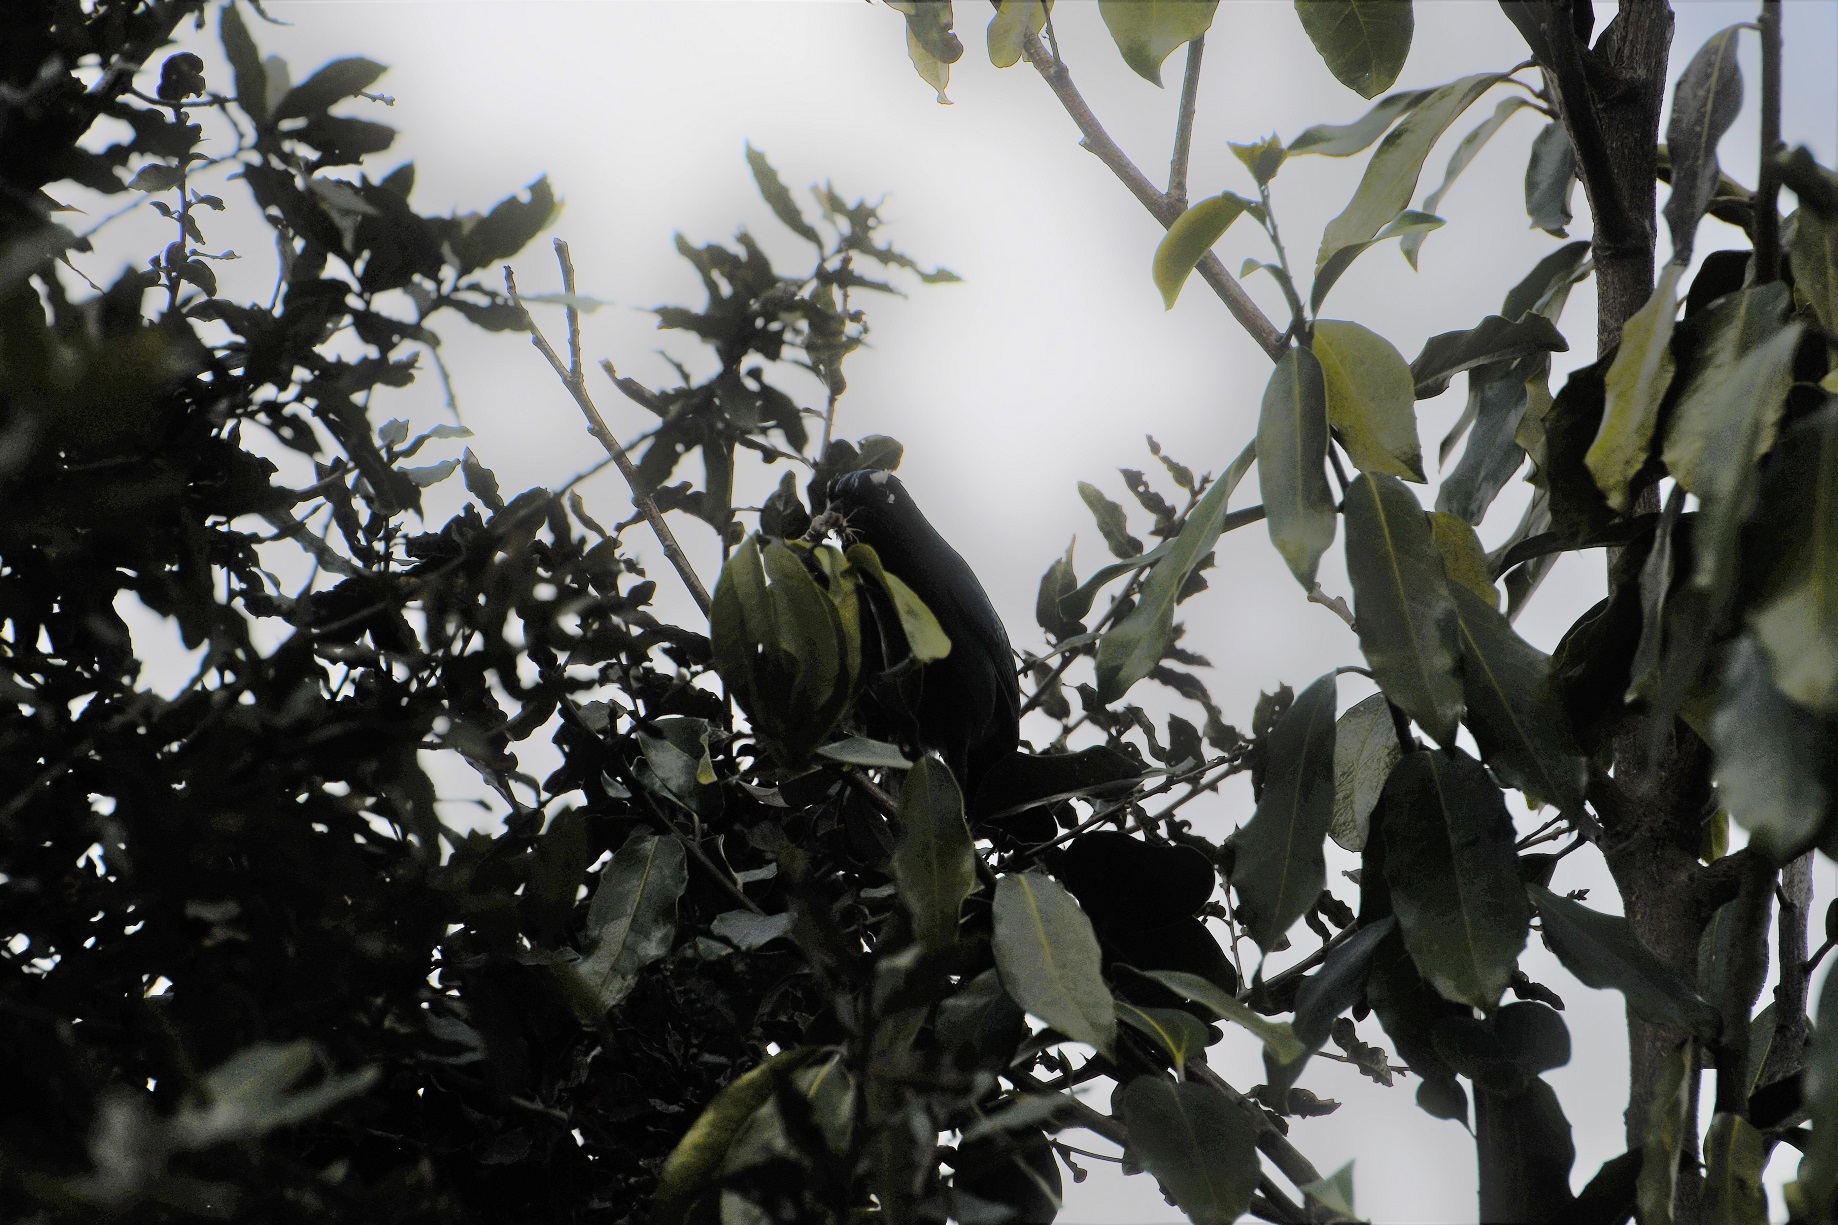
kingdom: Animalia
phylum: Chordata
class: Aves
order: Passeriformes
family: Corvidae
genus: Cyanocitta
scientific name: Cyanocitta stelleri
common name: Steller's jay
